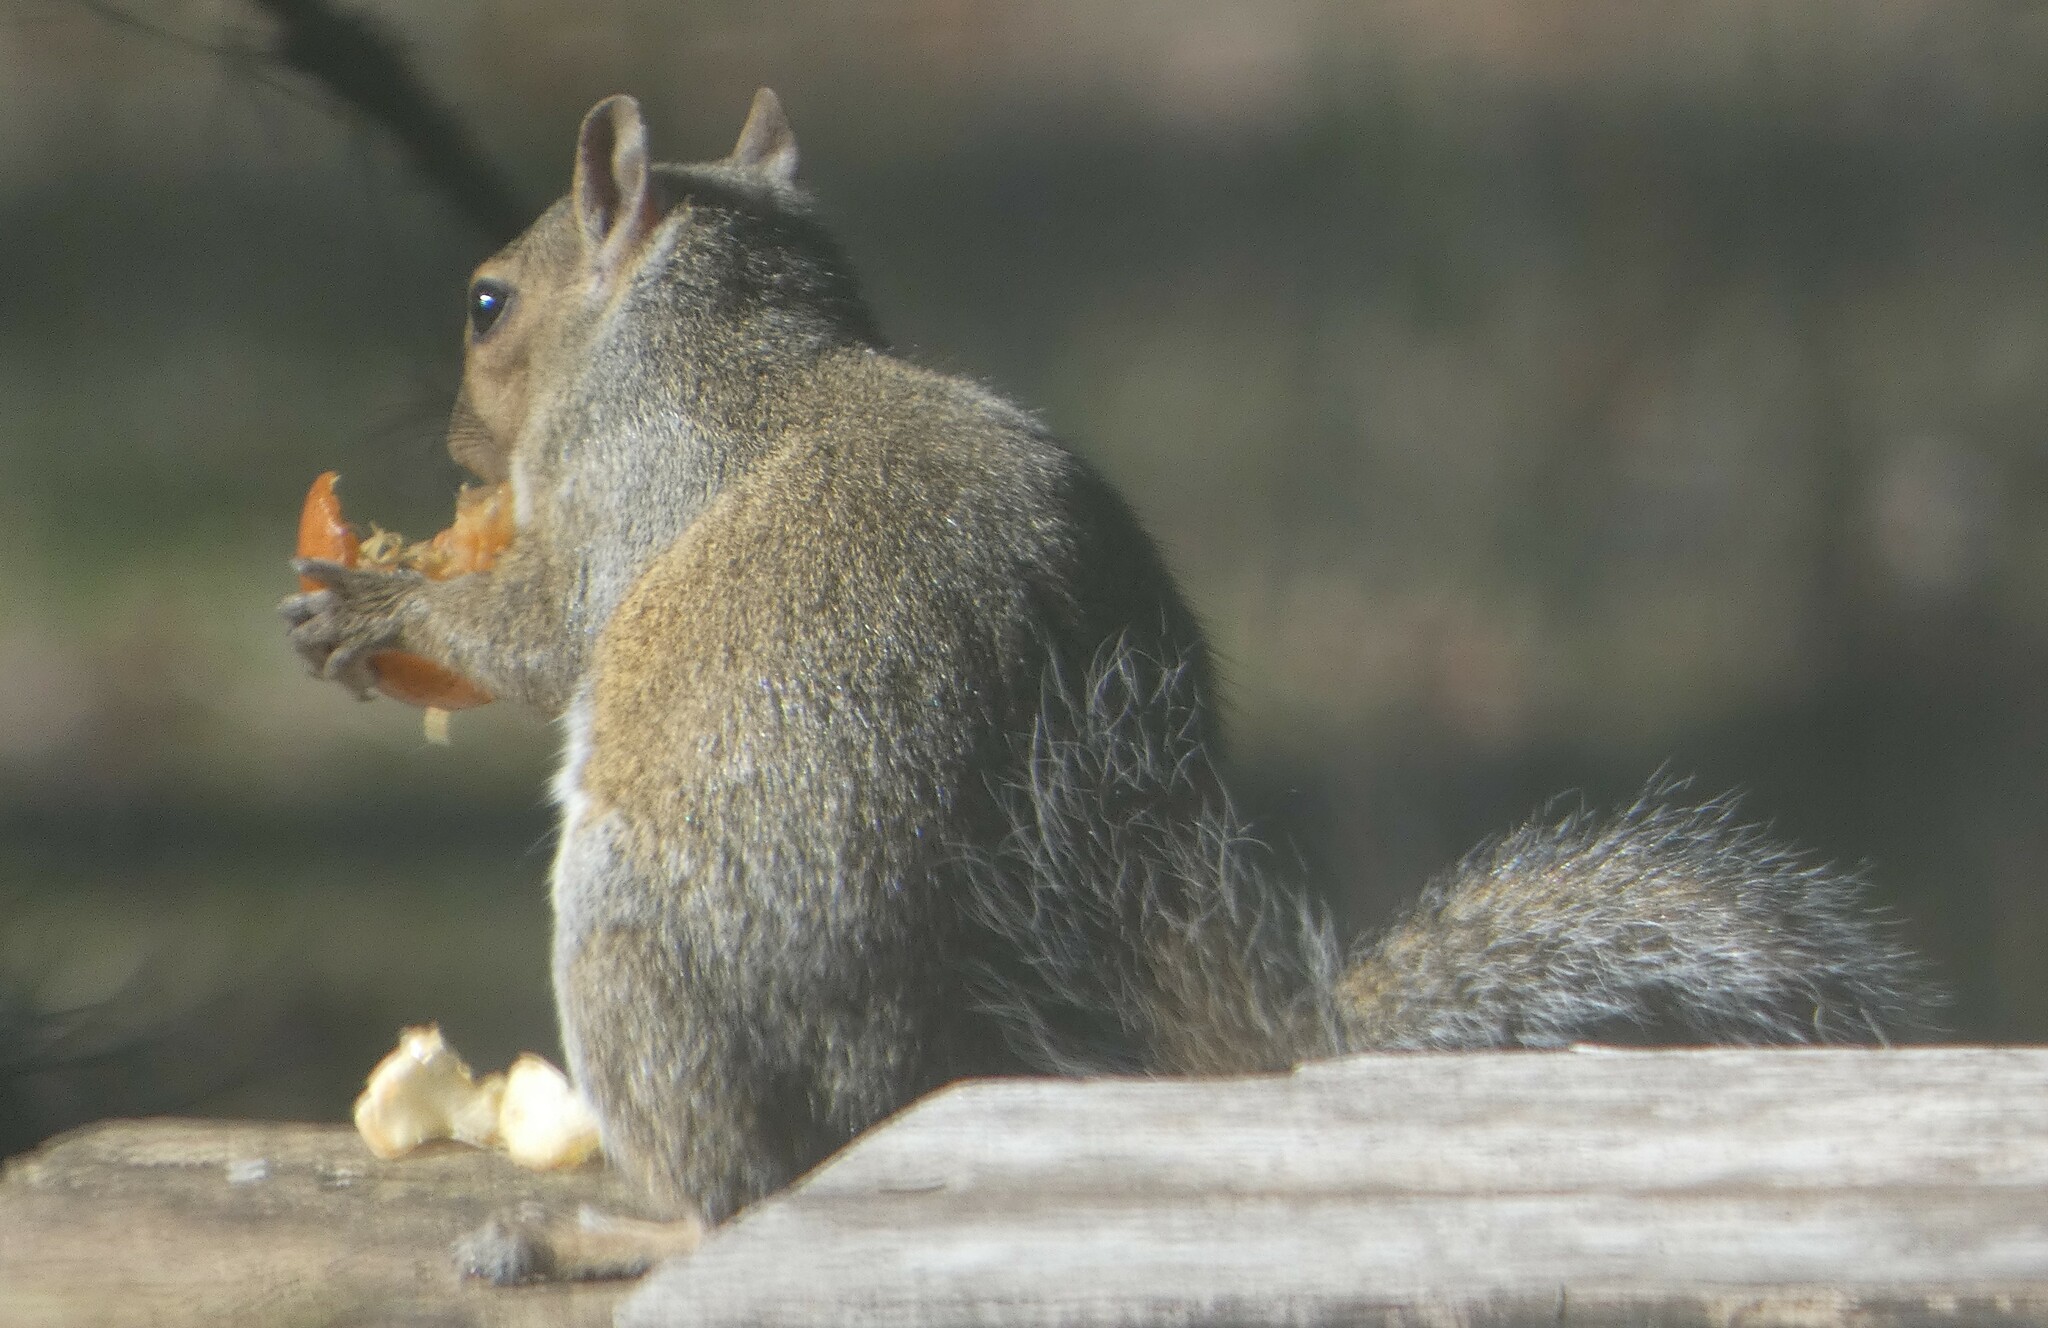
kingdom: Animalia
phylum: Chordata
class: Mammalia
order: Rodentia
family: Sciuridae
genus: Sciurus
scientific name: Sciurus carolinensis
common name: Eastern gray squirrel
